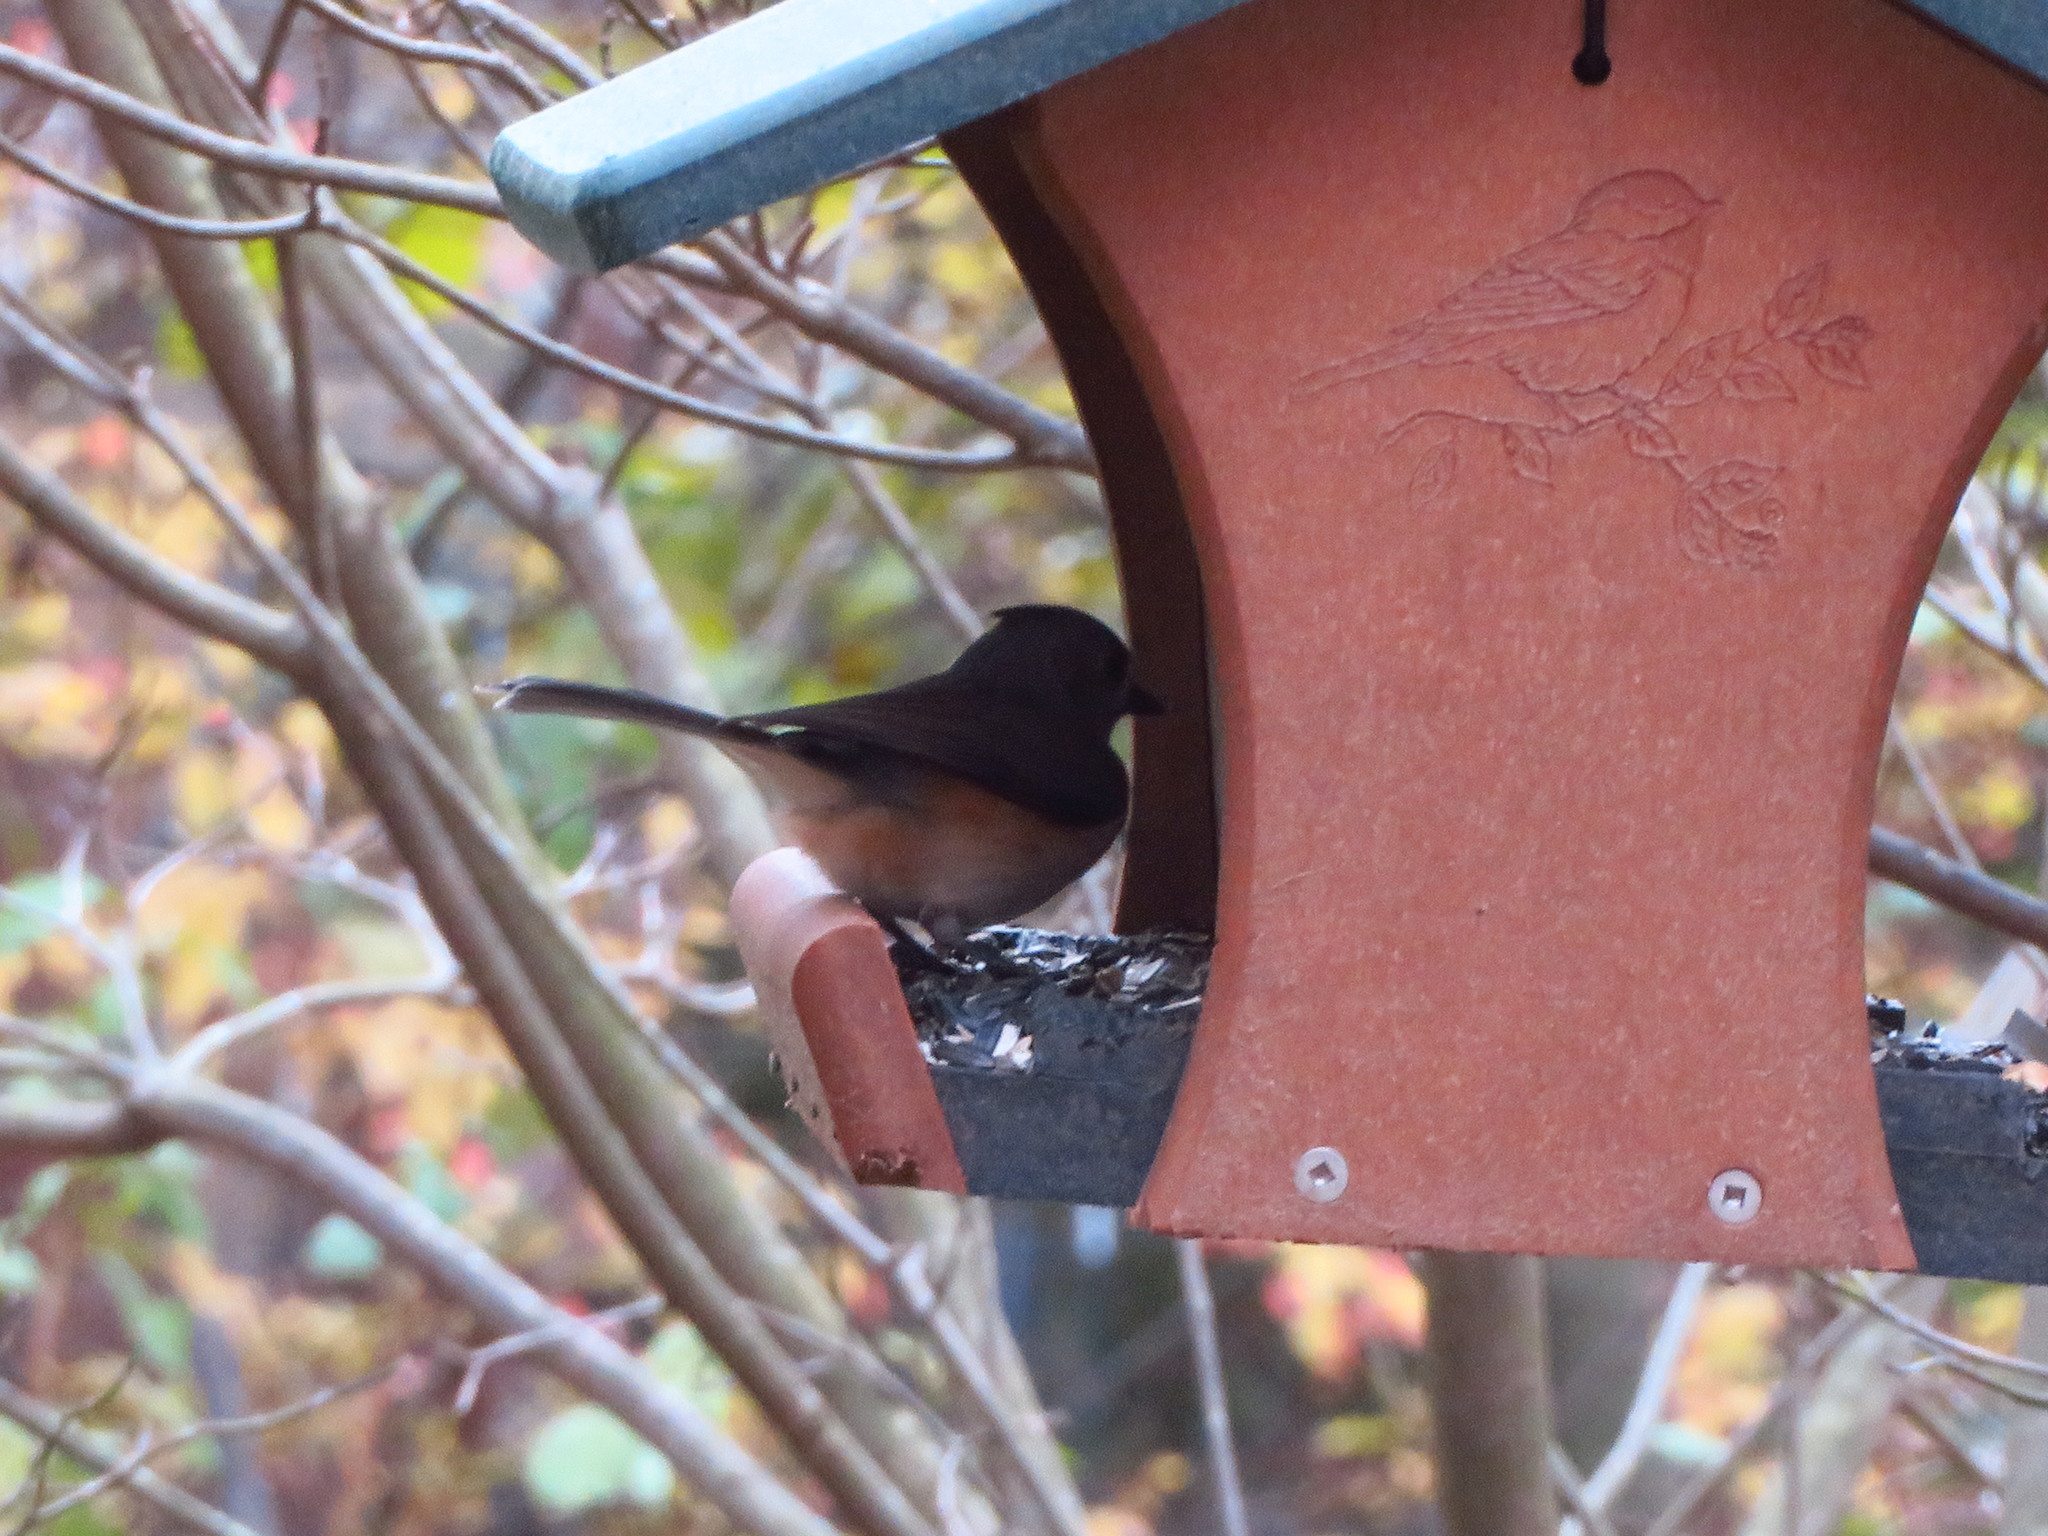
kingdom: Animalia
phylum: Chordata
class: Aves
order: Passeriformes
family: Paridae
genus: Baeolophus
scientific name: Baeolophus bicolor
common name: Tufted titmouse
